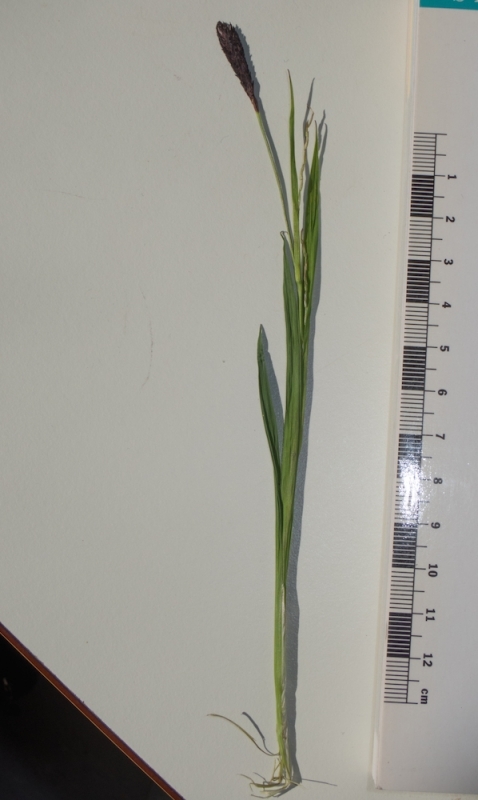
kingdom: Plantae
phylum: Tracheophyta
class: Liliopsida
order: Poales
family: Cyperaceae
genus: Carex
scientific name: Carex pilosa
